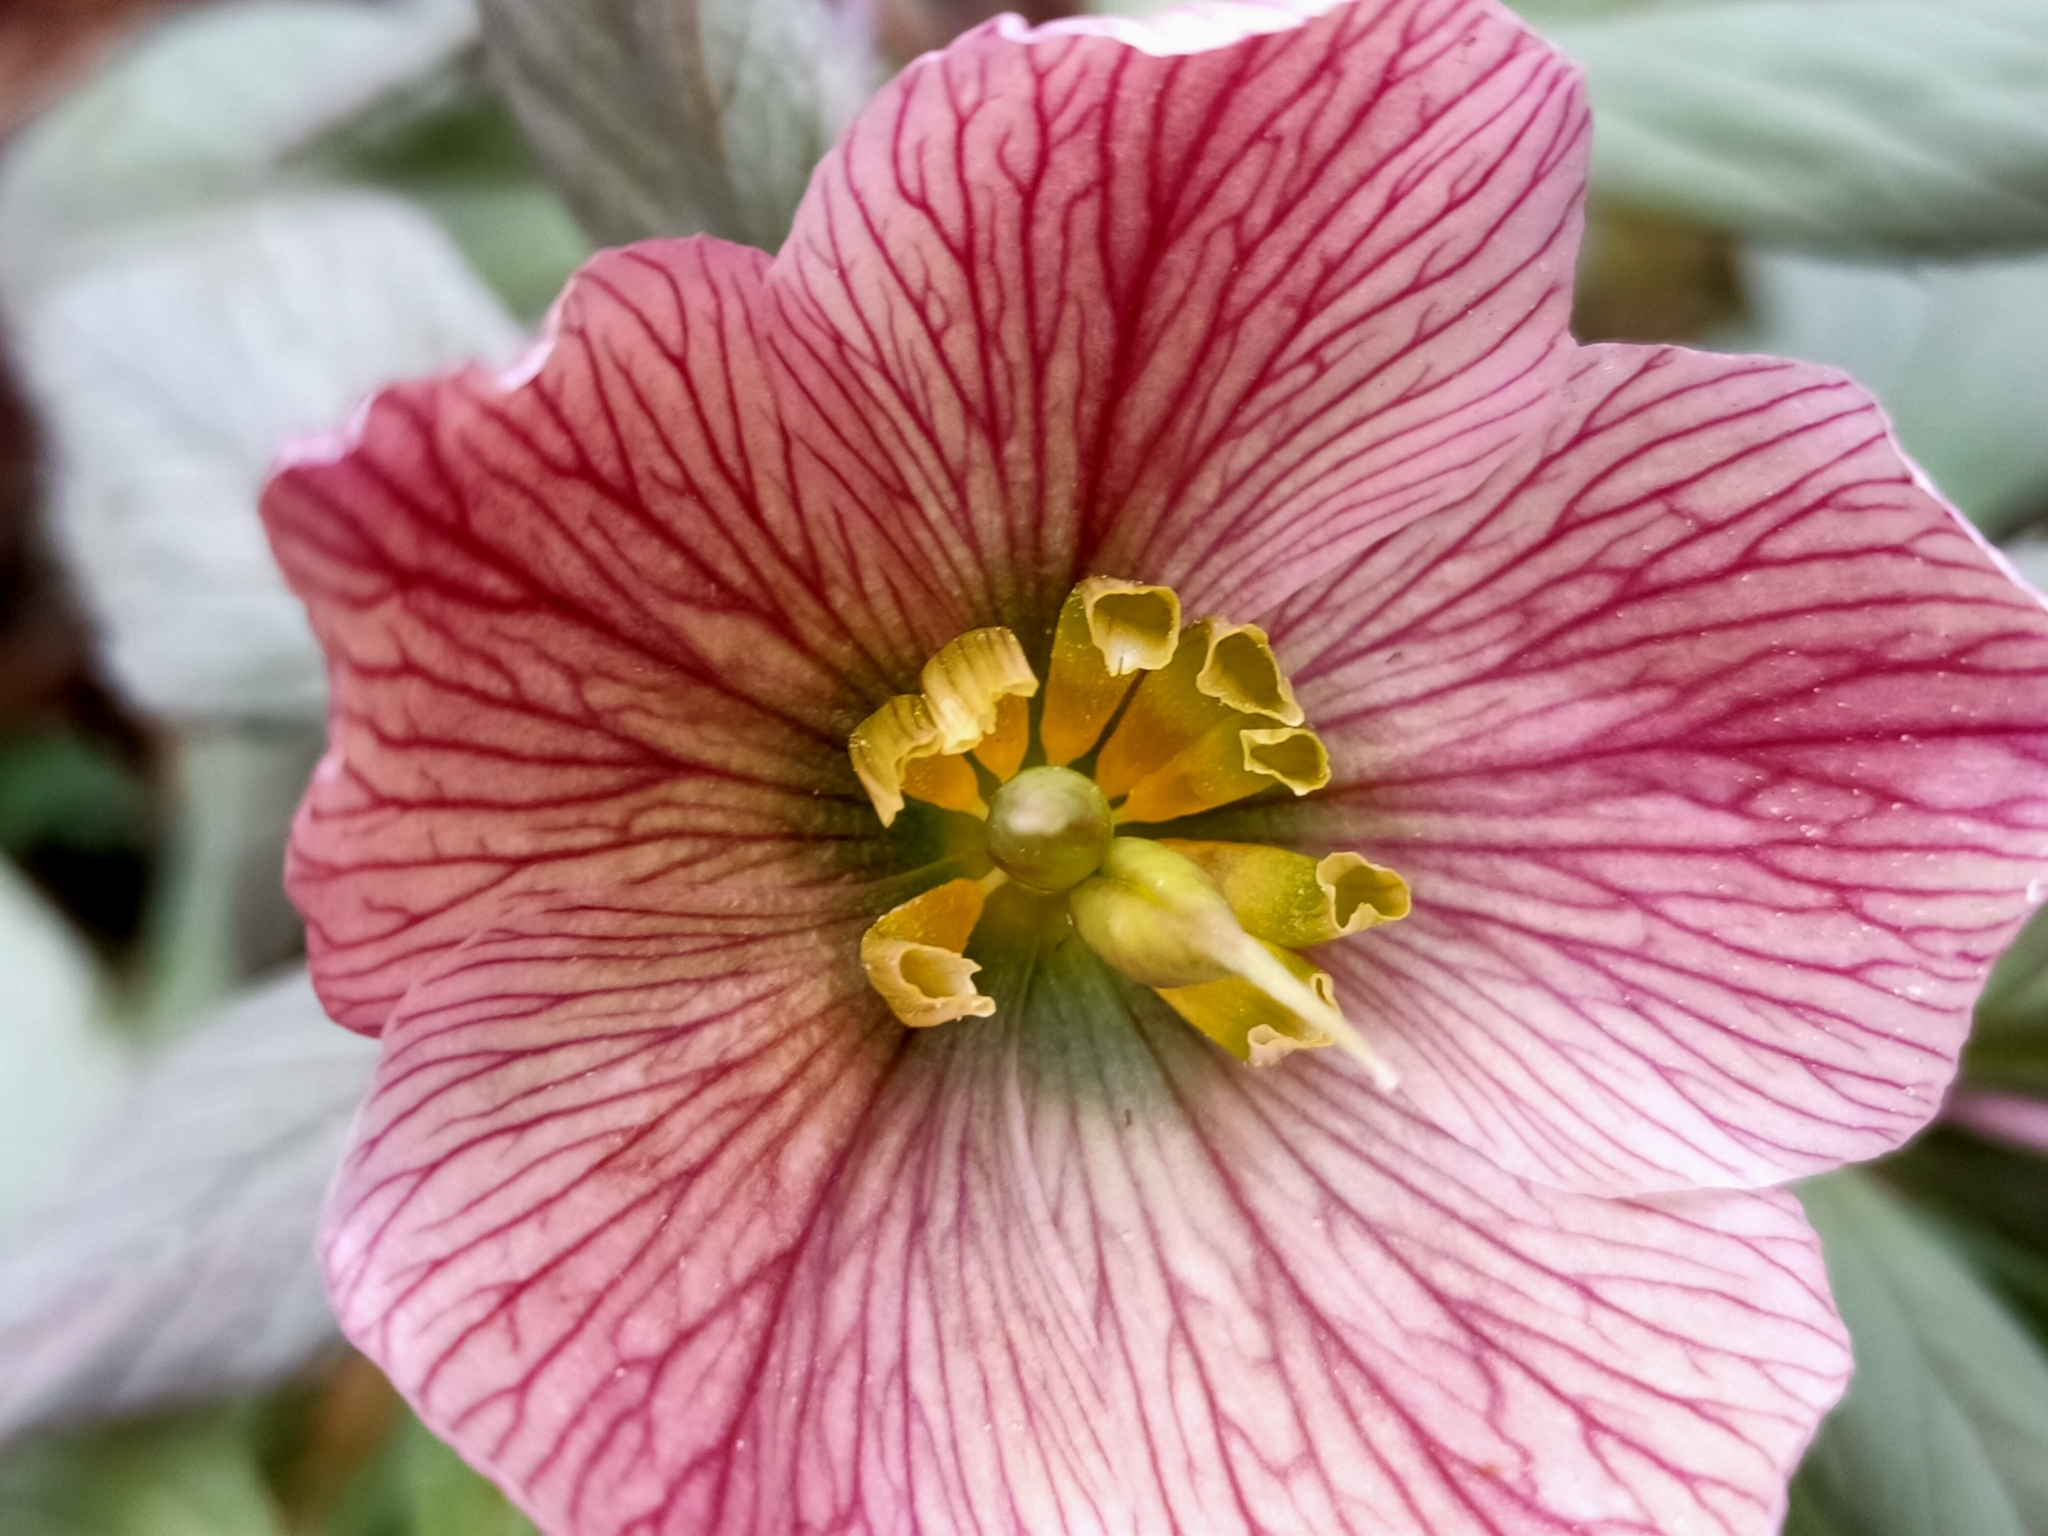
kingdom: Plantae
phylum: Tracheophyta
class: Magnoliopsida
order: Ranunculales
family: Ranunculaceae
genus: Helleborus
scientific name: Helleborus thibetanus
